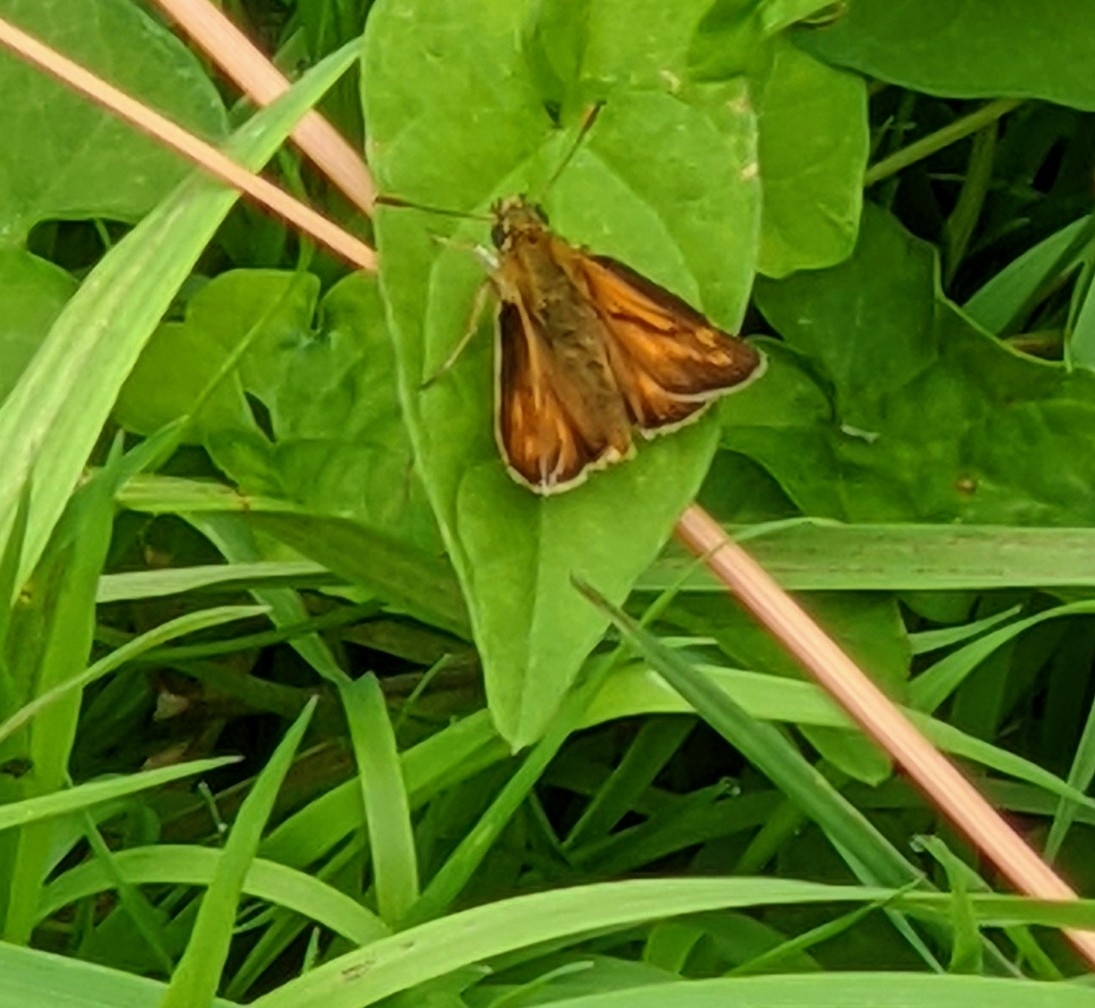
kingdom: Animalia
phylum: Arthropoda
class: Insecta
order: Lepidoptera
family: Hesperiidae
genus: Ochlodes
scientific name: Ochlodes venata
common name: Large skipper
